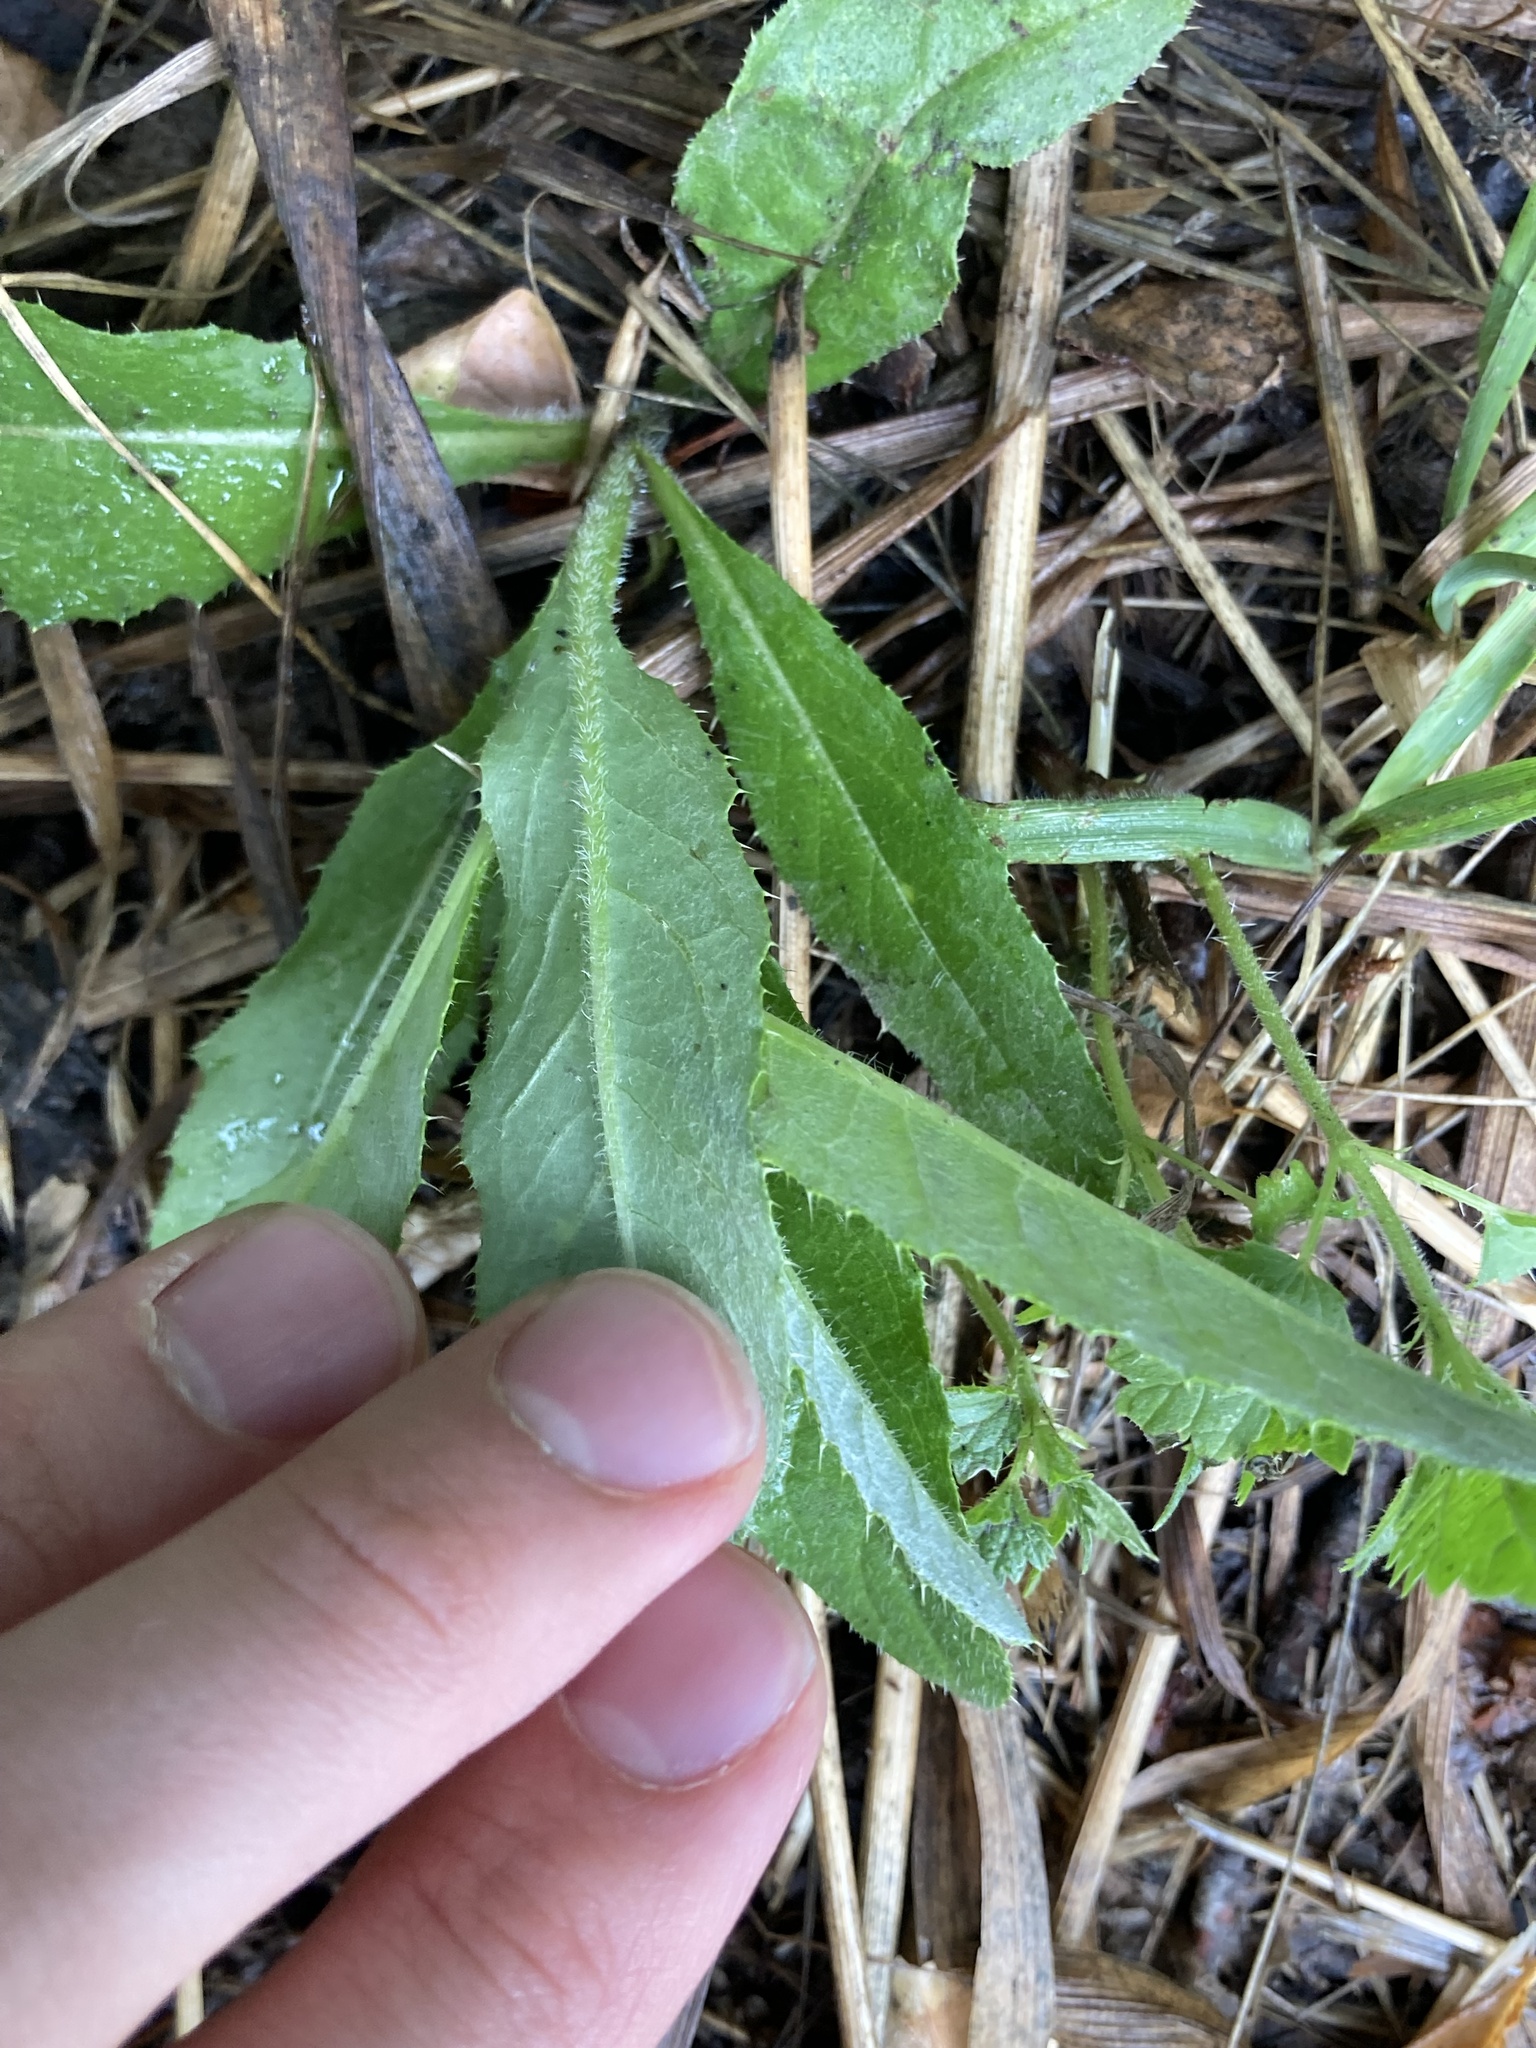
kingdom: Plantae
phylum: Tracheophyta
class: Magnoliopsida
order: Asterales
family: Asteraceae
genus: Cirsium
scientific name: Cirsium arvense
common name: Creeping thistle
